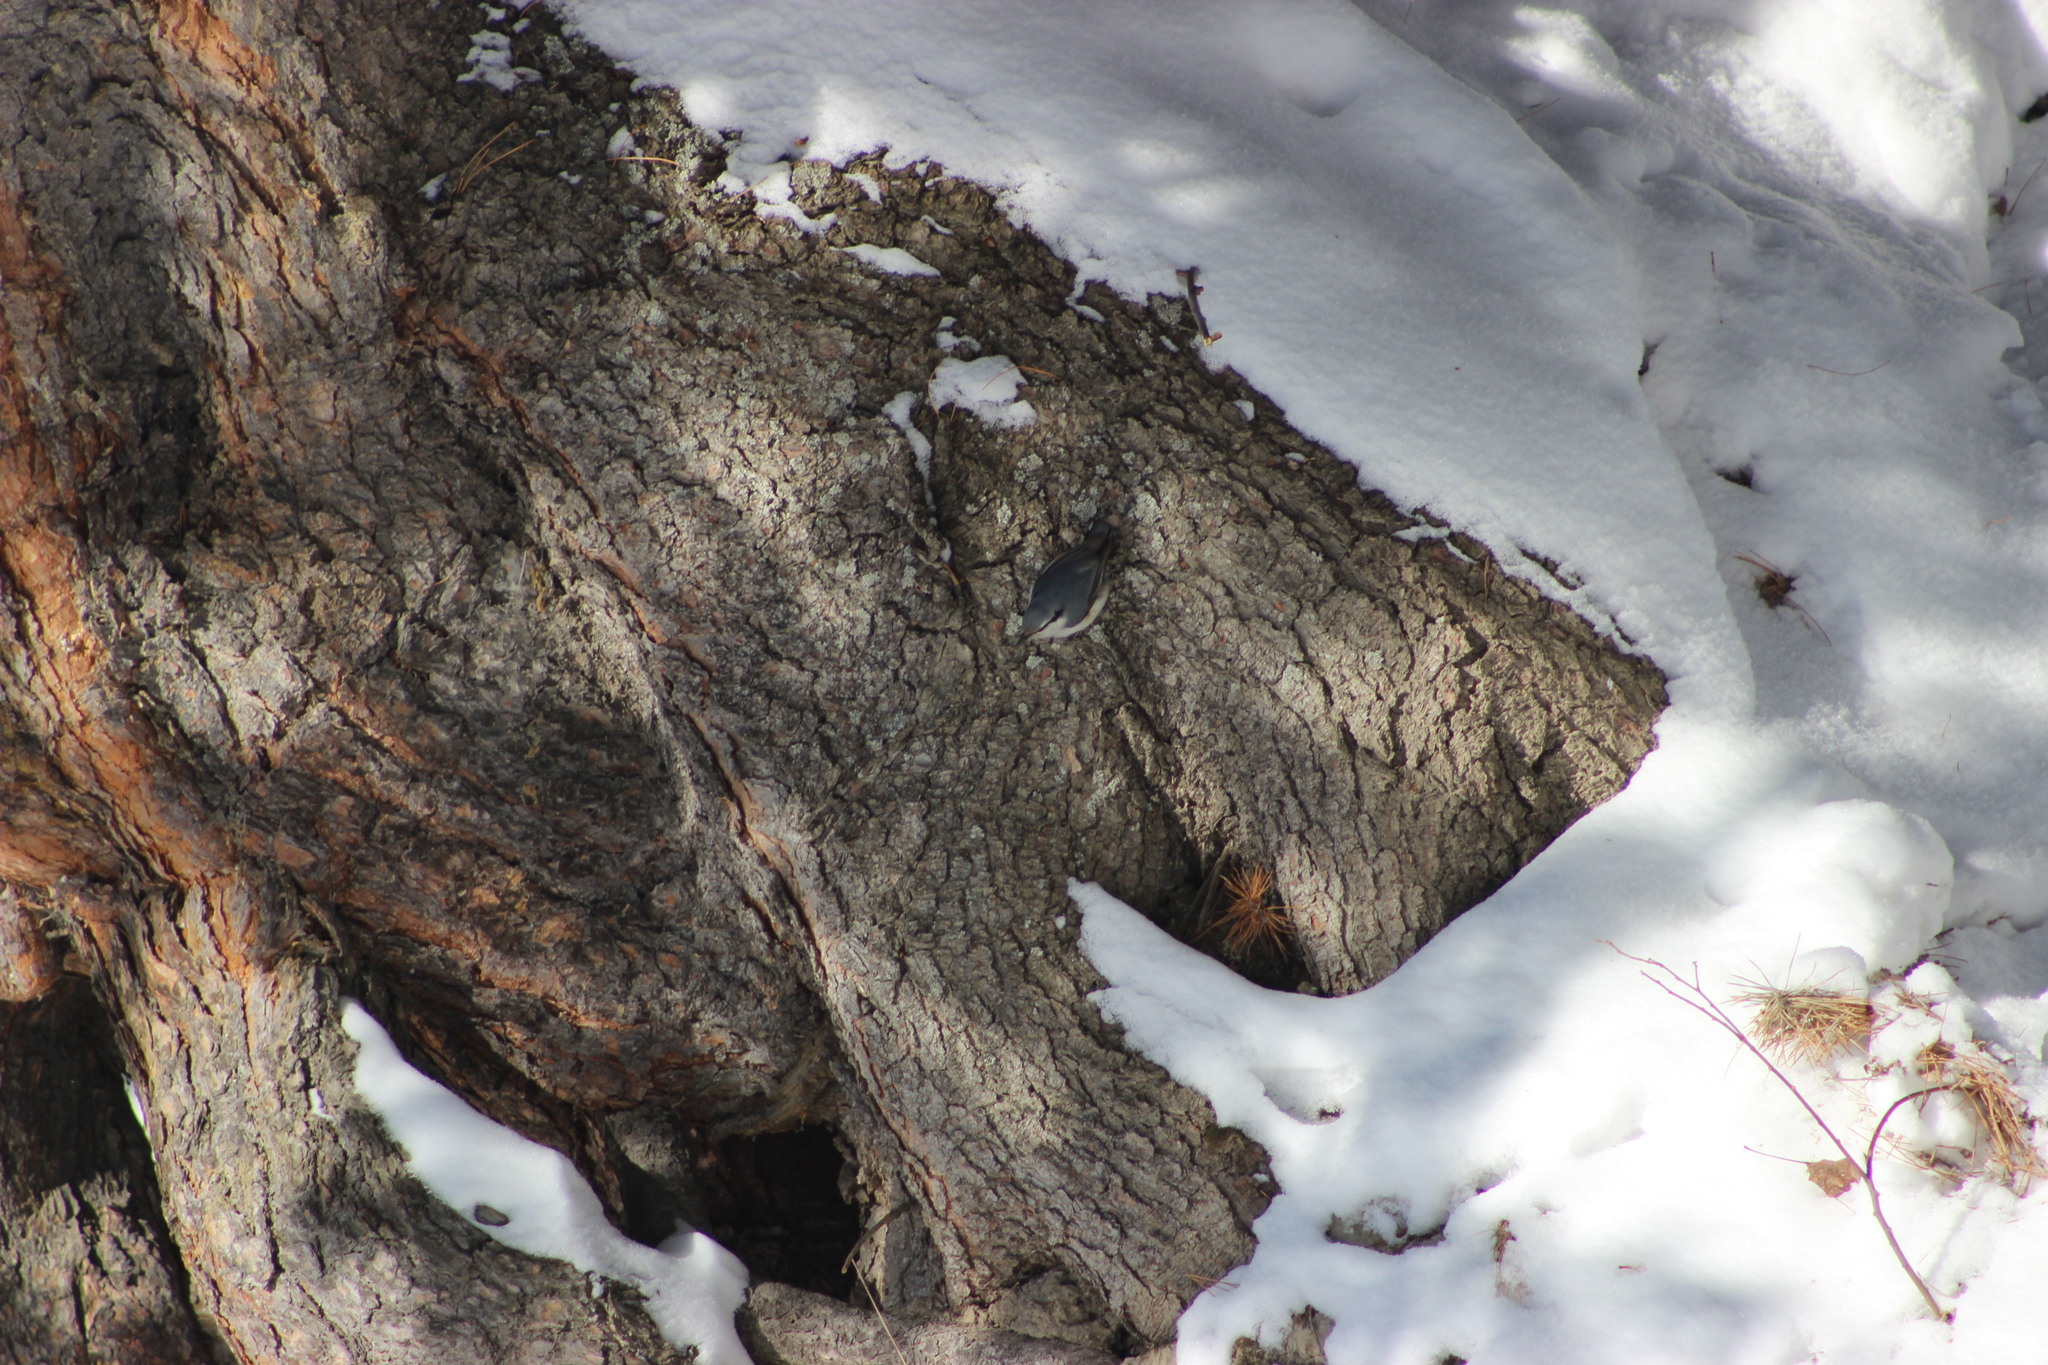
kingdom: Animalia
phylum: Chordata
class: Aves
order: Passeriformes
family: Sittidae
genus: Sitta
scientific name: Sitta europaea
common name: Eurasian nuthatch
